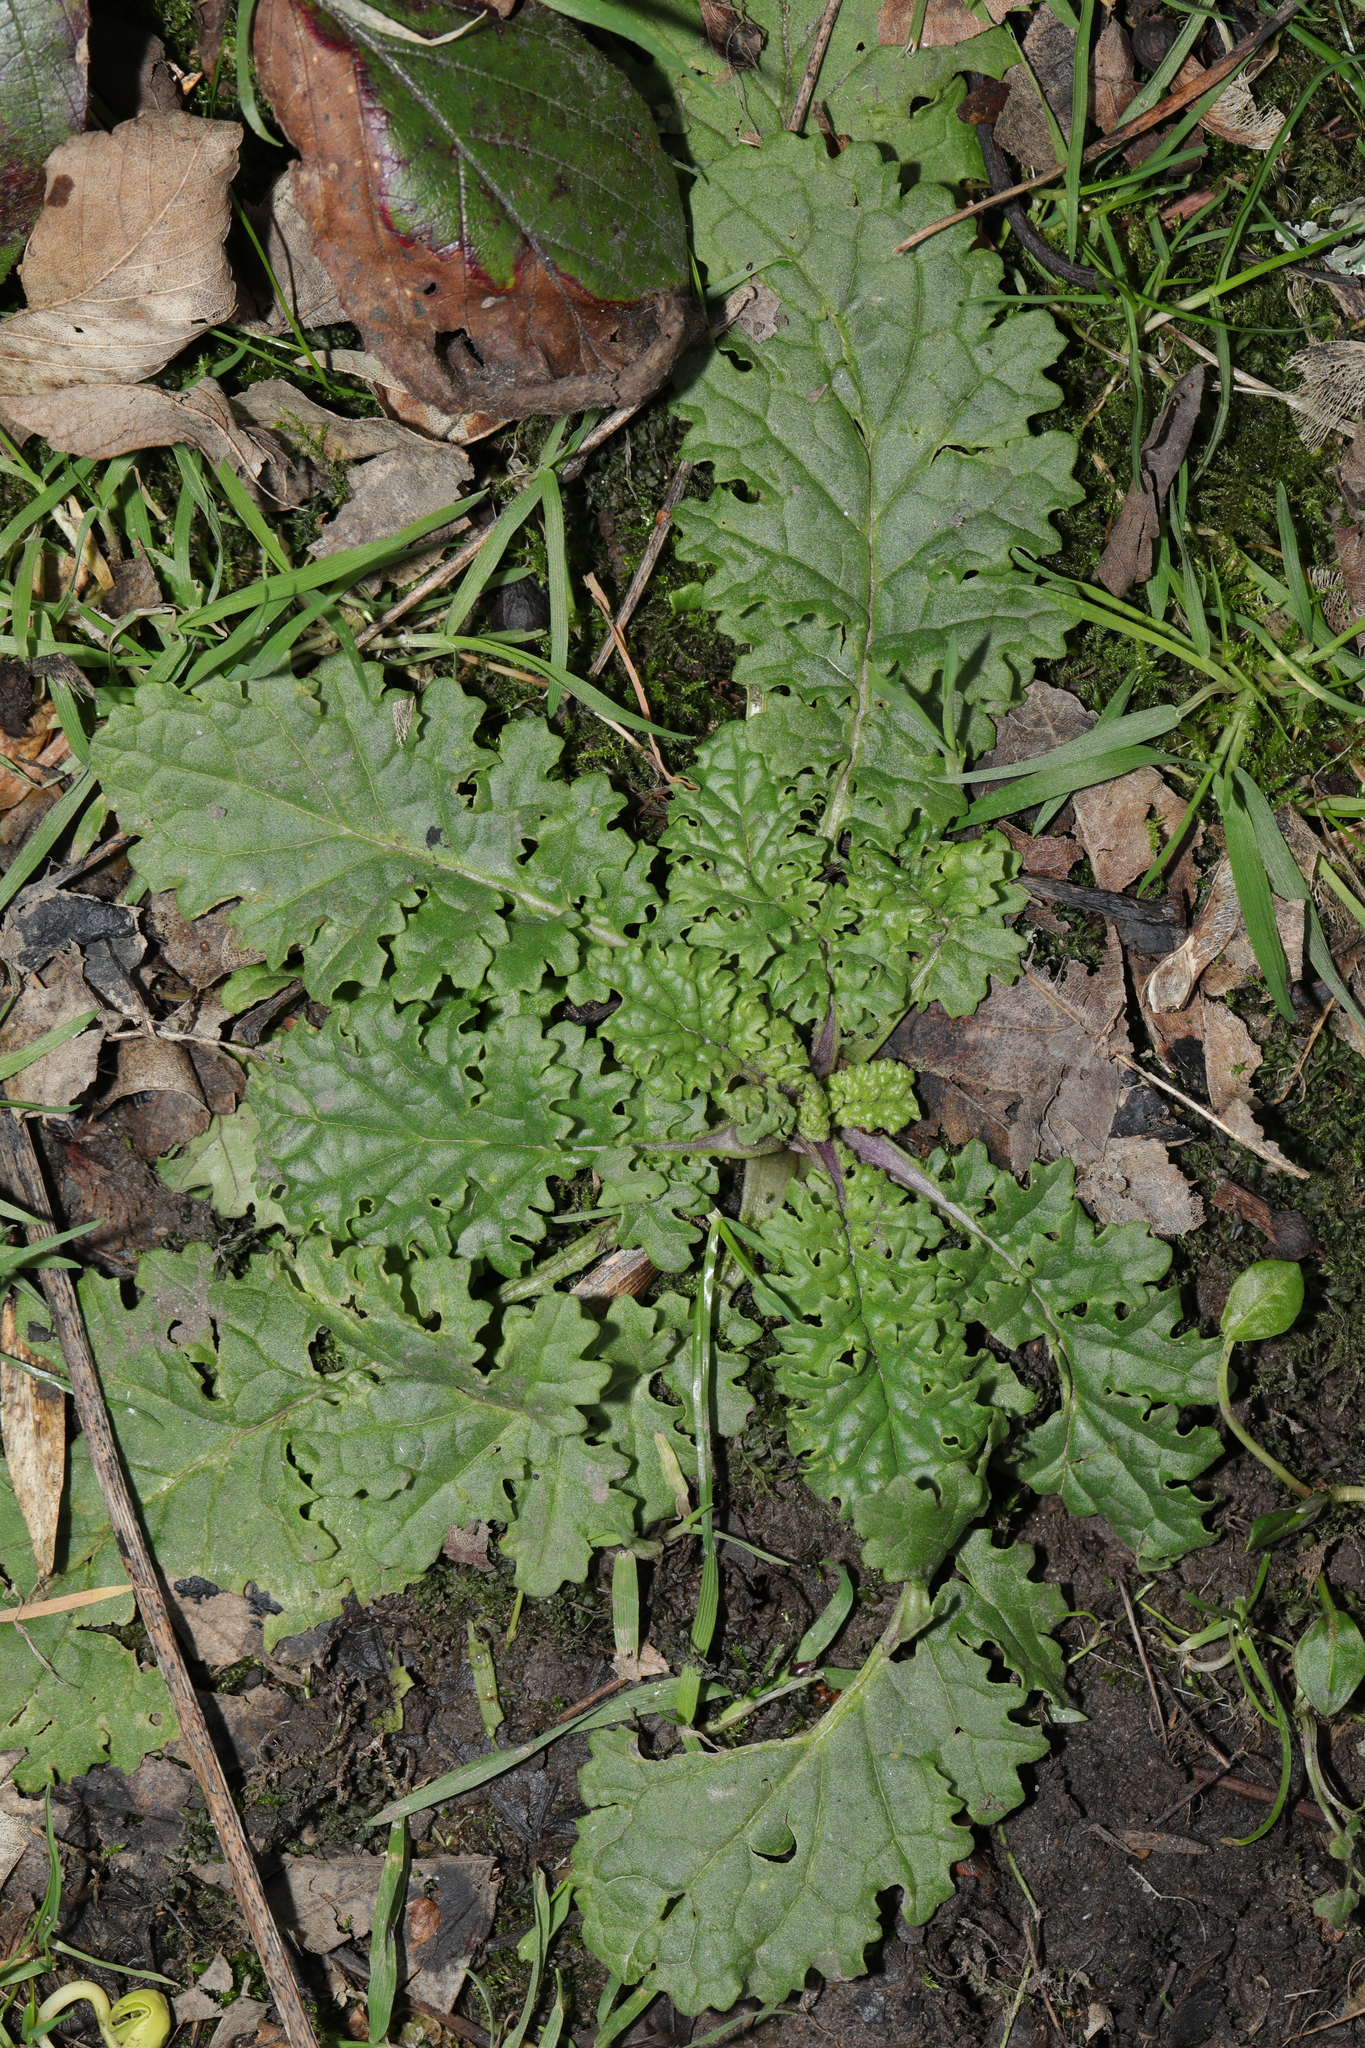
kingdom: Plantae
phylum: Tracheophyta
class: Magnoliopsida
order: Asterales
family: Asteraceae
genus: Jacobaea
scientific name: Jacobaea vulgaris
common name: Stinking willie
